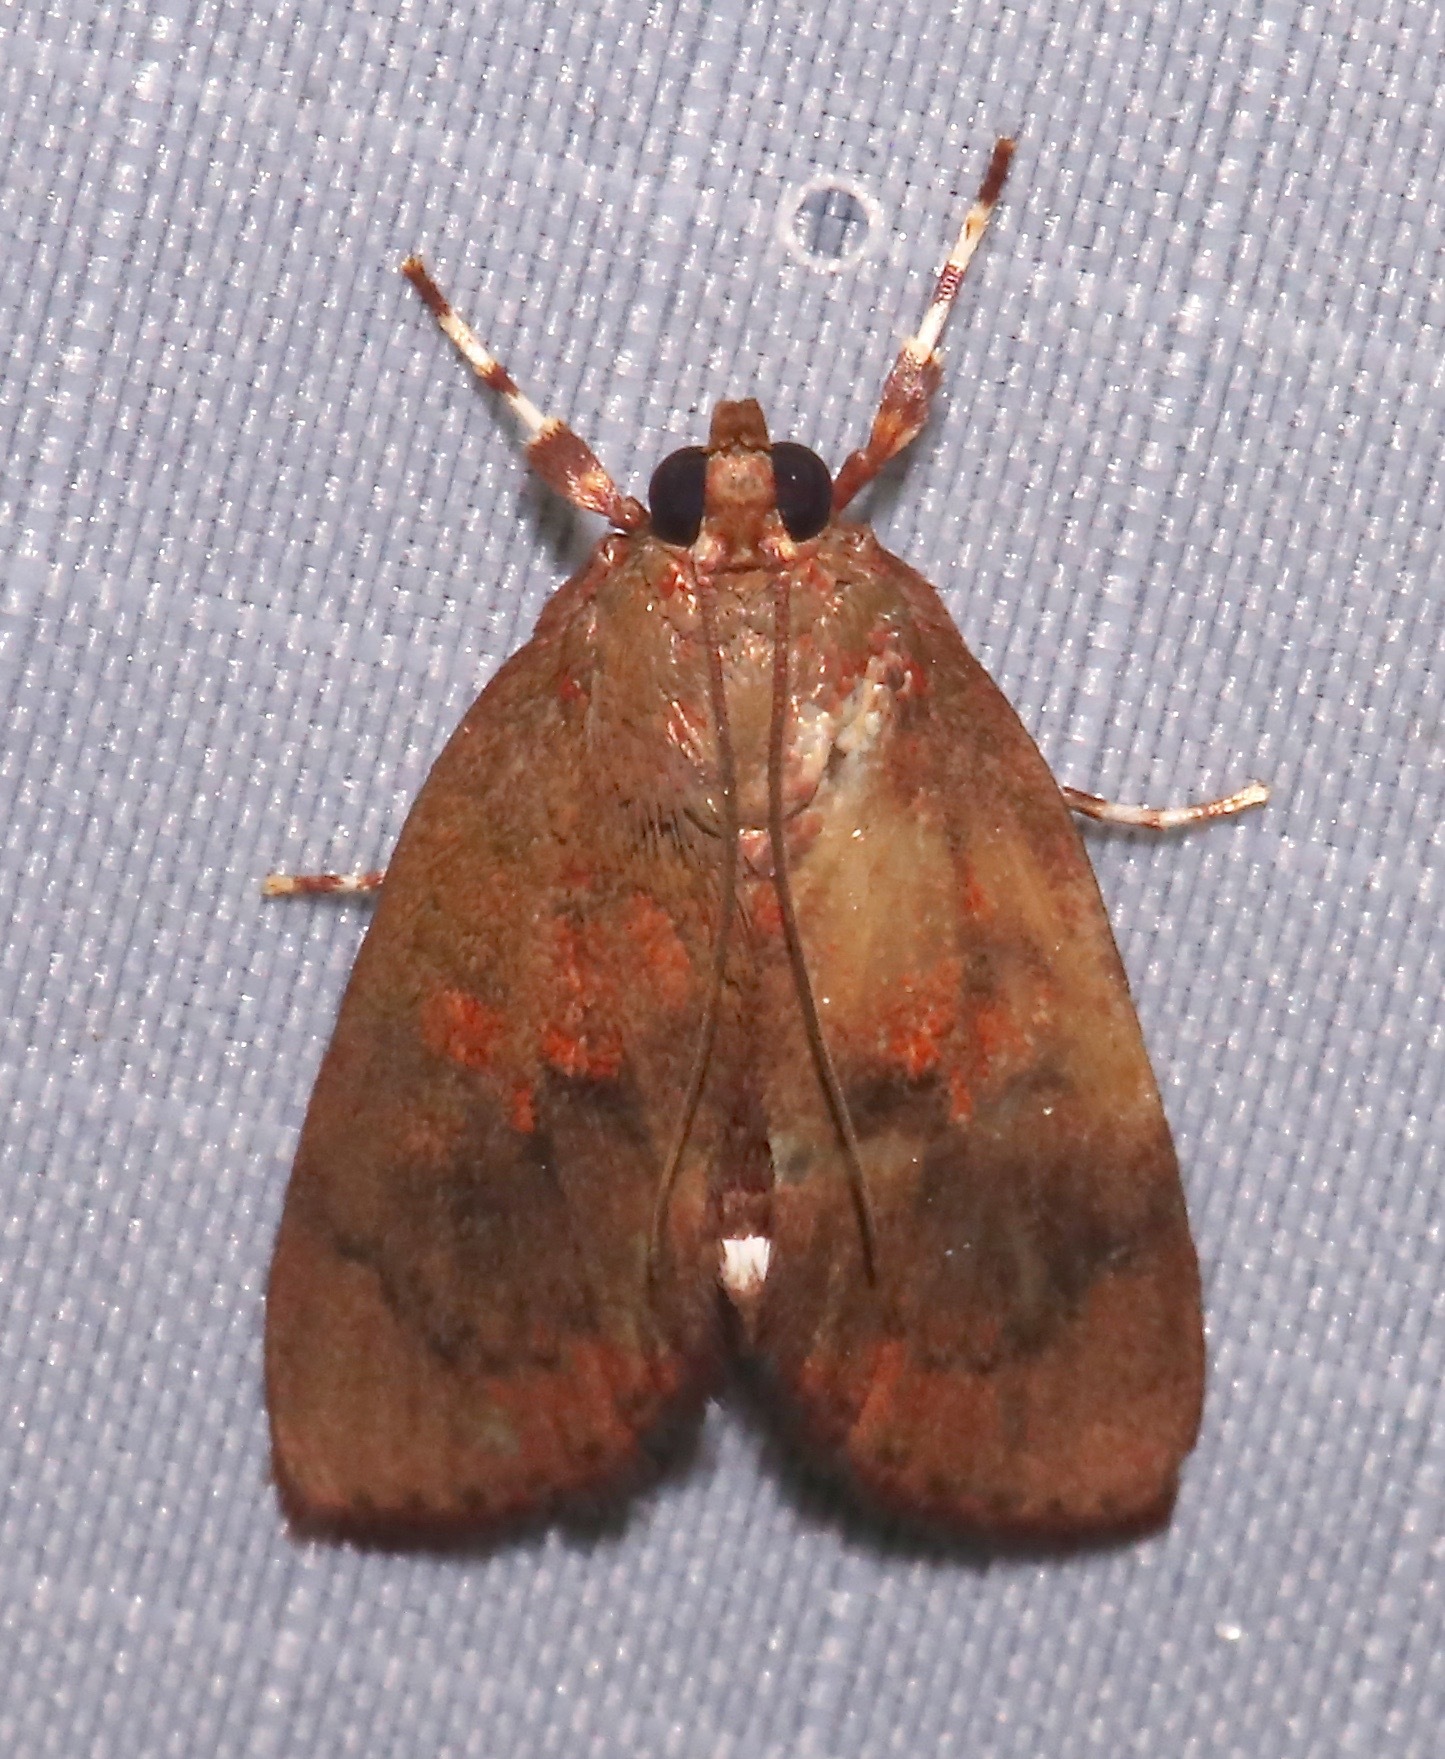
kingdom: Animalia
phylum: Arthropoda
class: Insecta
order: Lepidoptera
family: Crambidae
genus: Mimophobetron
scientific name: Mimophobetron pyropsalis
